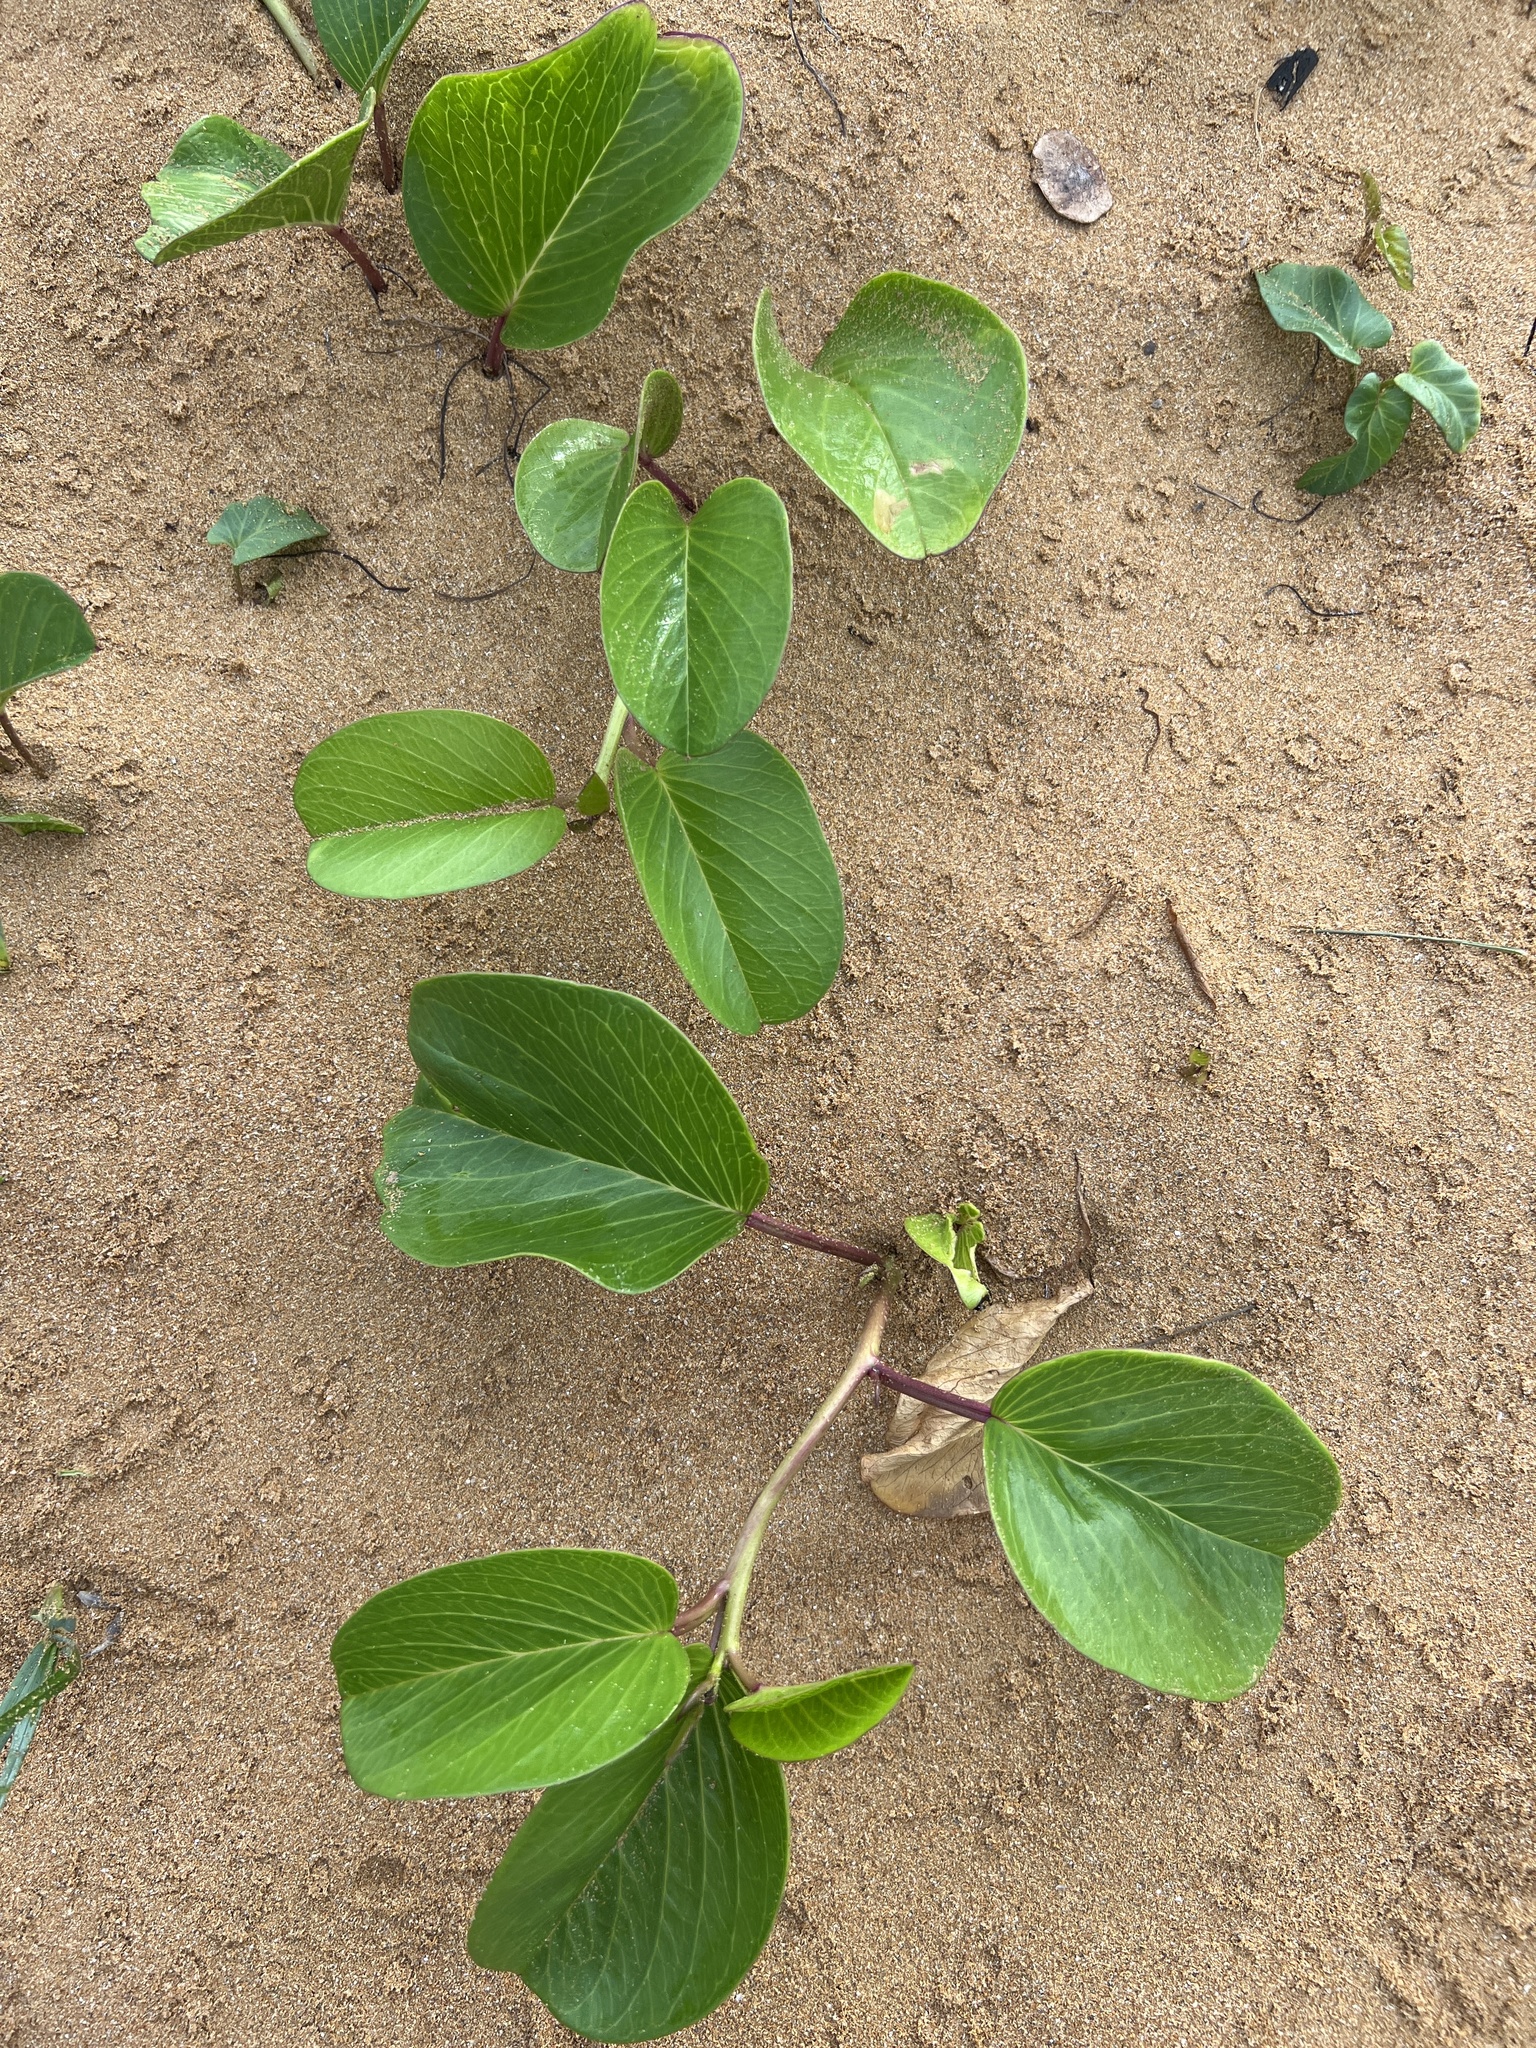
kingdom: Plantae
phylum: Tracheophyta
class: Magnoliopsida
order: Solanales
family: Convolvulaceae
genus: Ipomoea
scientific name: Ipomoea pes-caprae
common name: Beach morning glory
